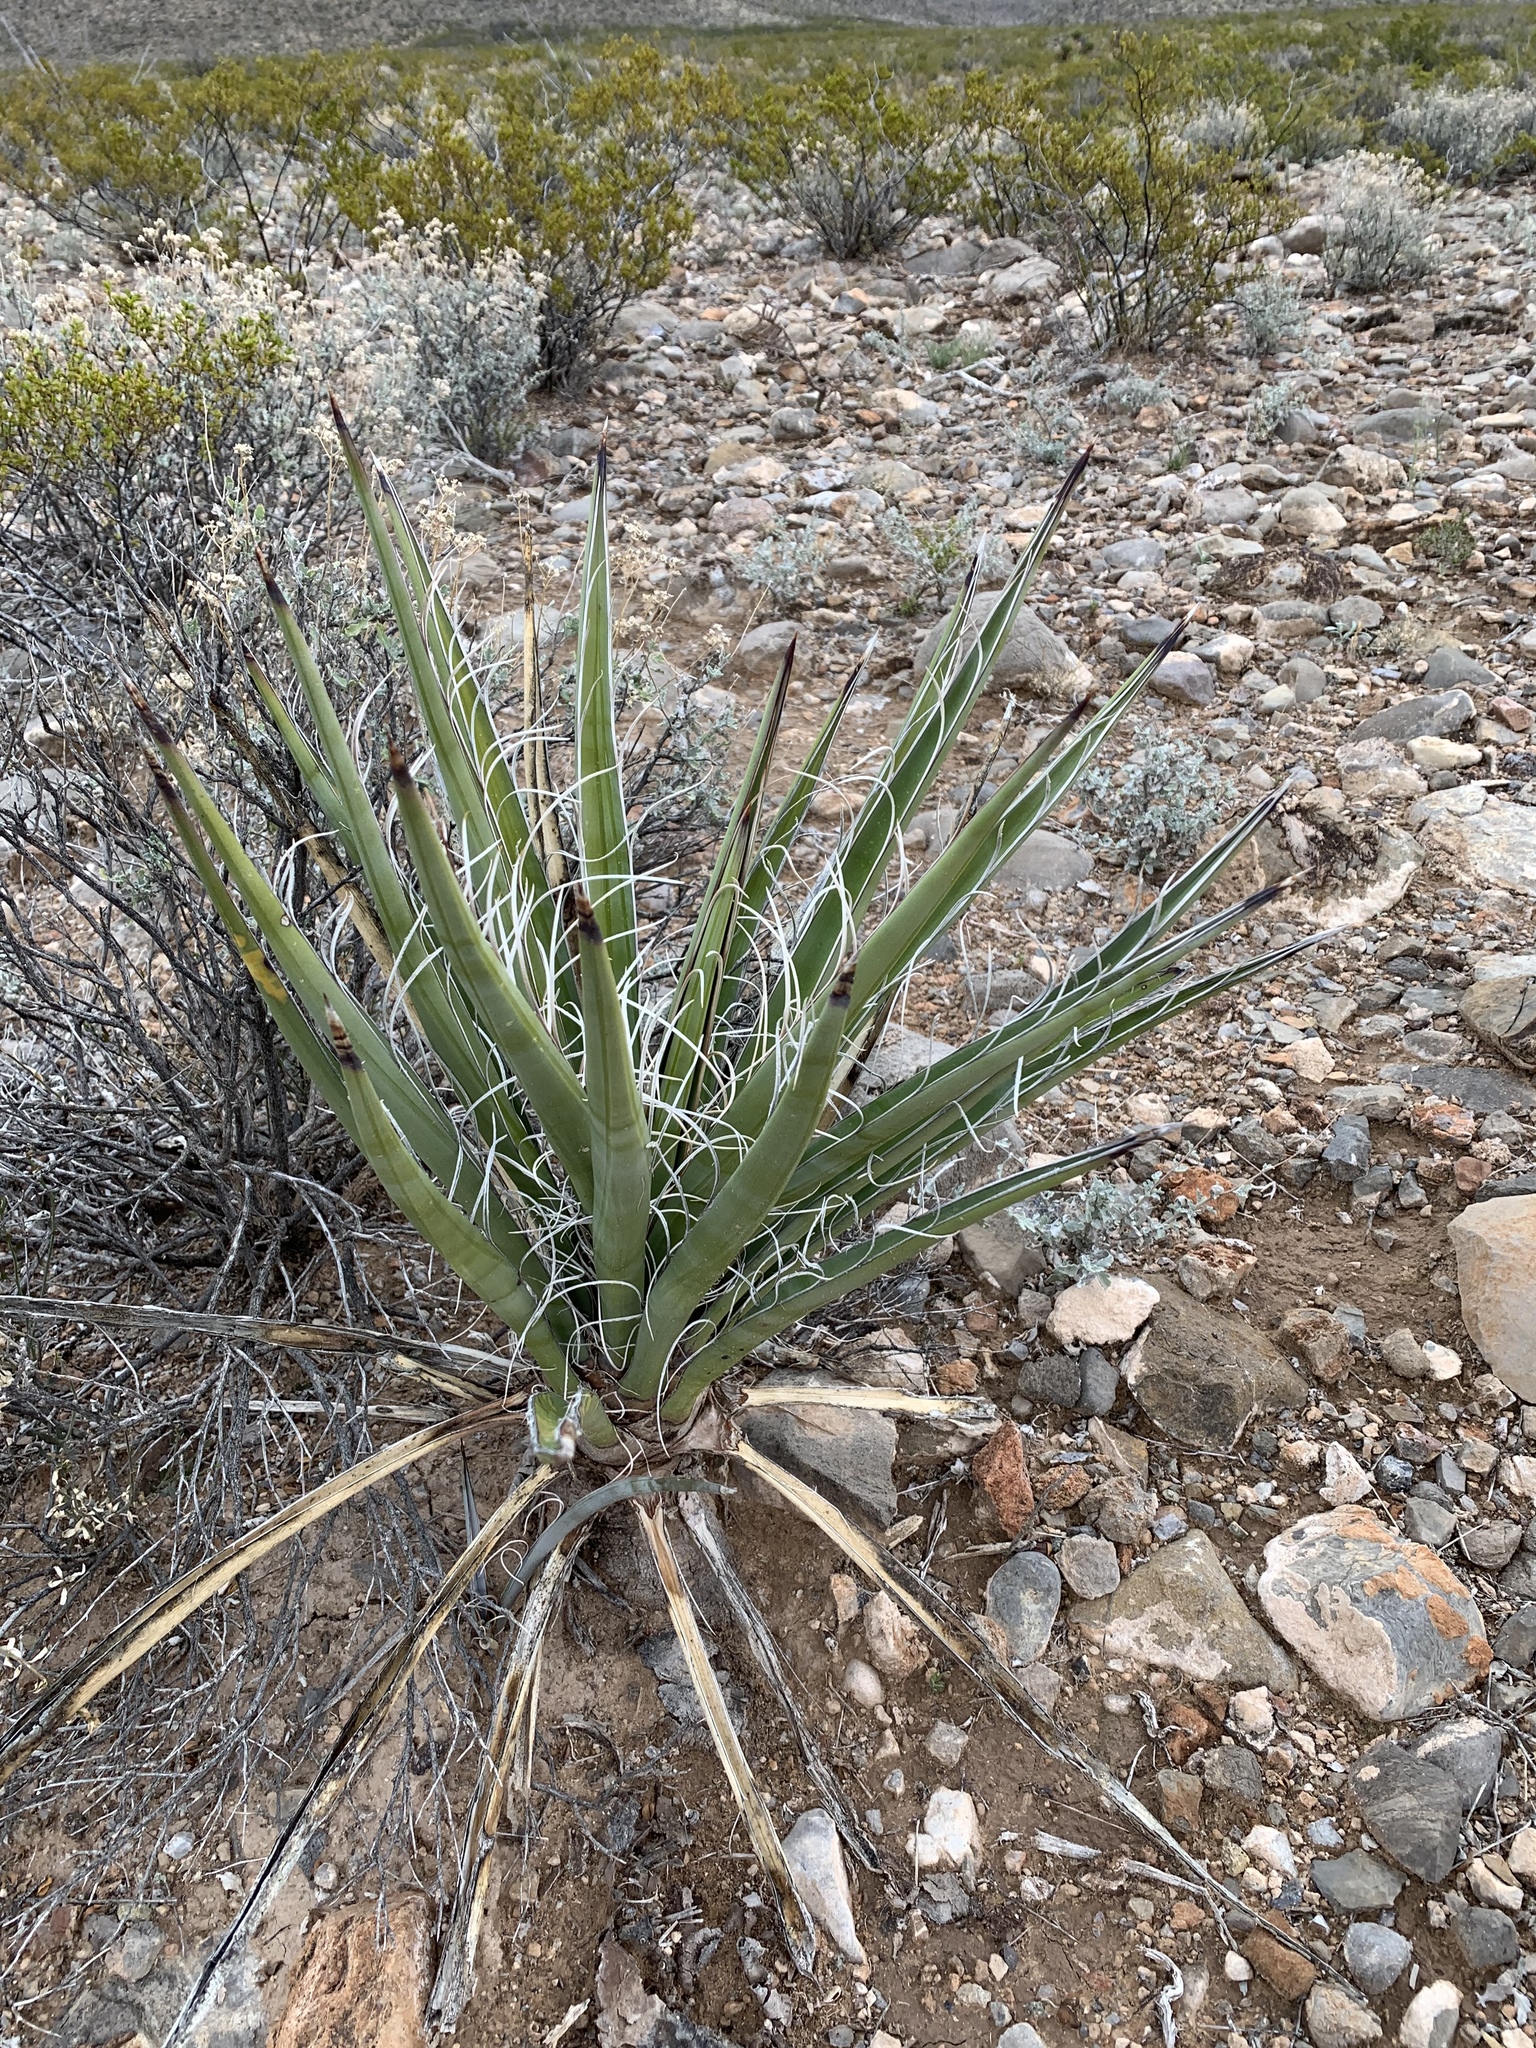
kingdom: Plantae
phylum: Tracheophyta
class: Liliopsida
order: Asparagales
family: Asparagaceae
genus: Yucca
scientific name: Yucca baccata
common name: Banana yucca
